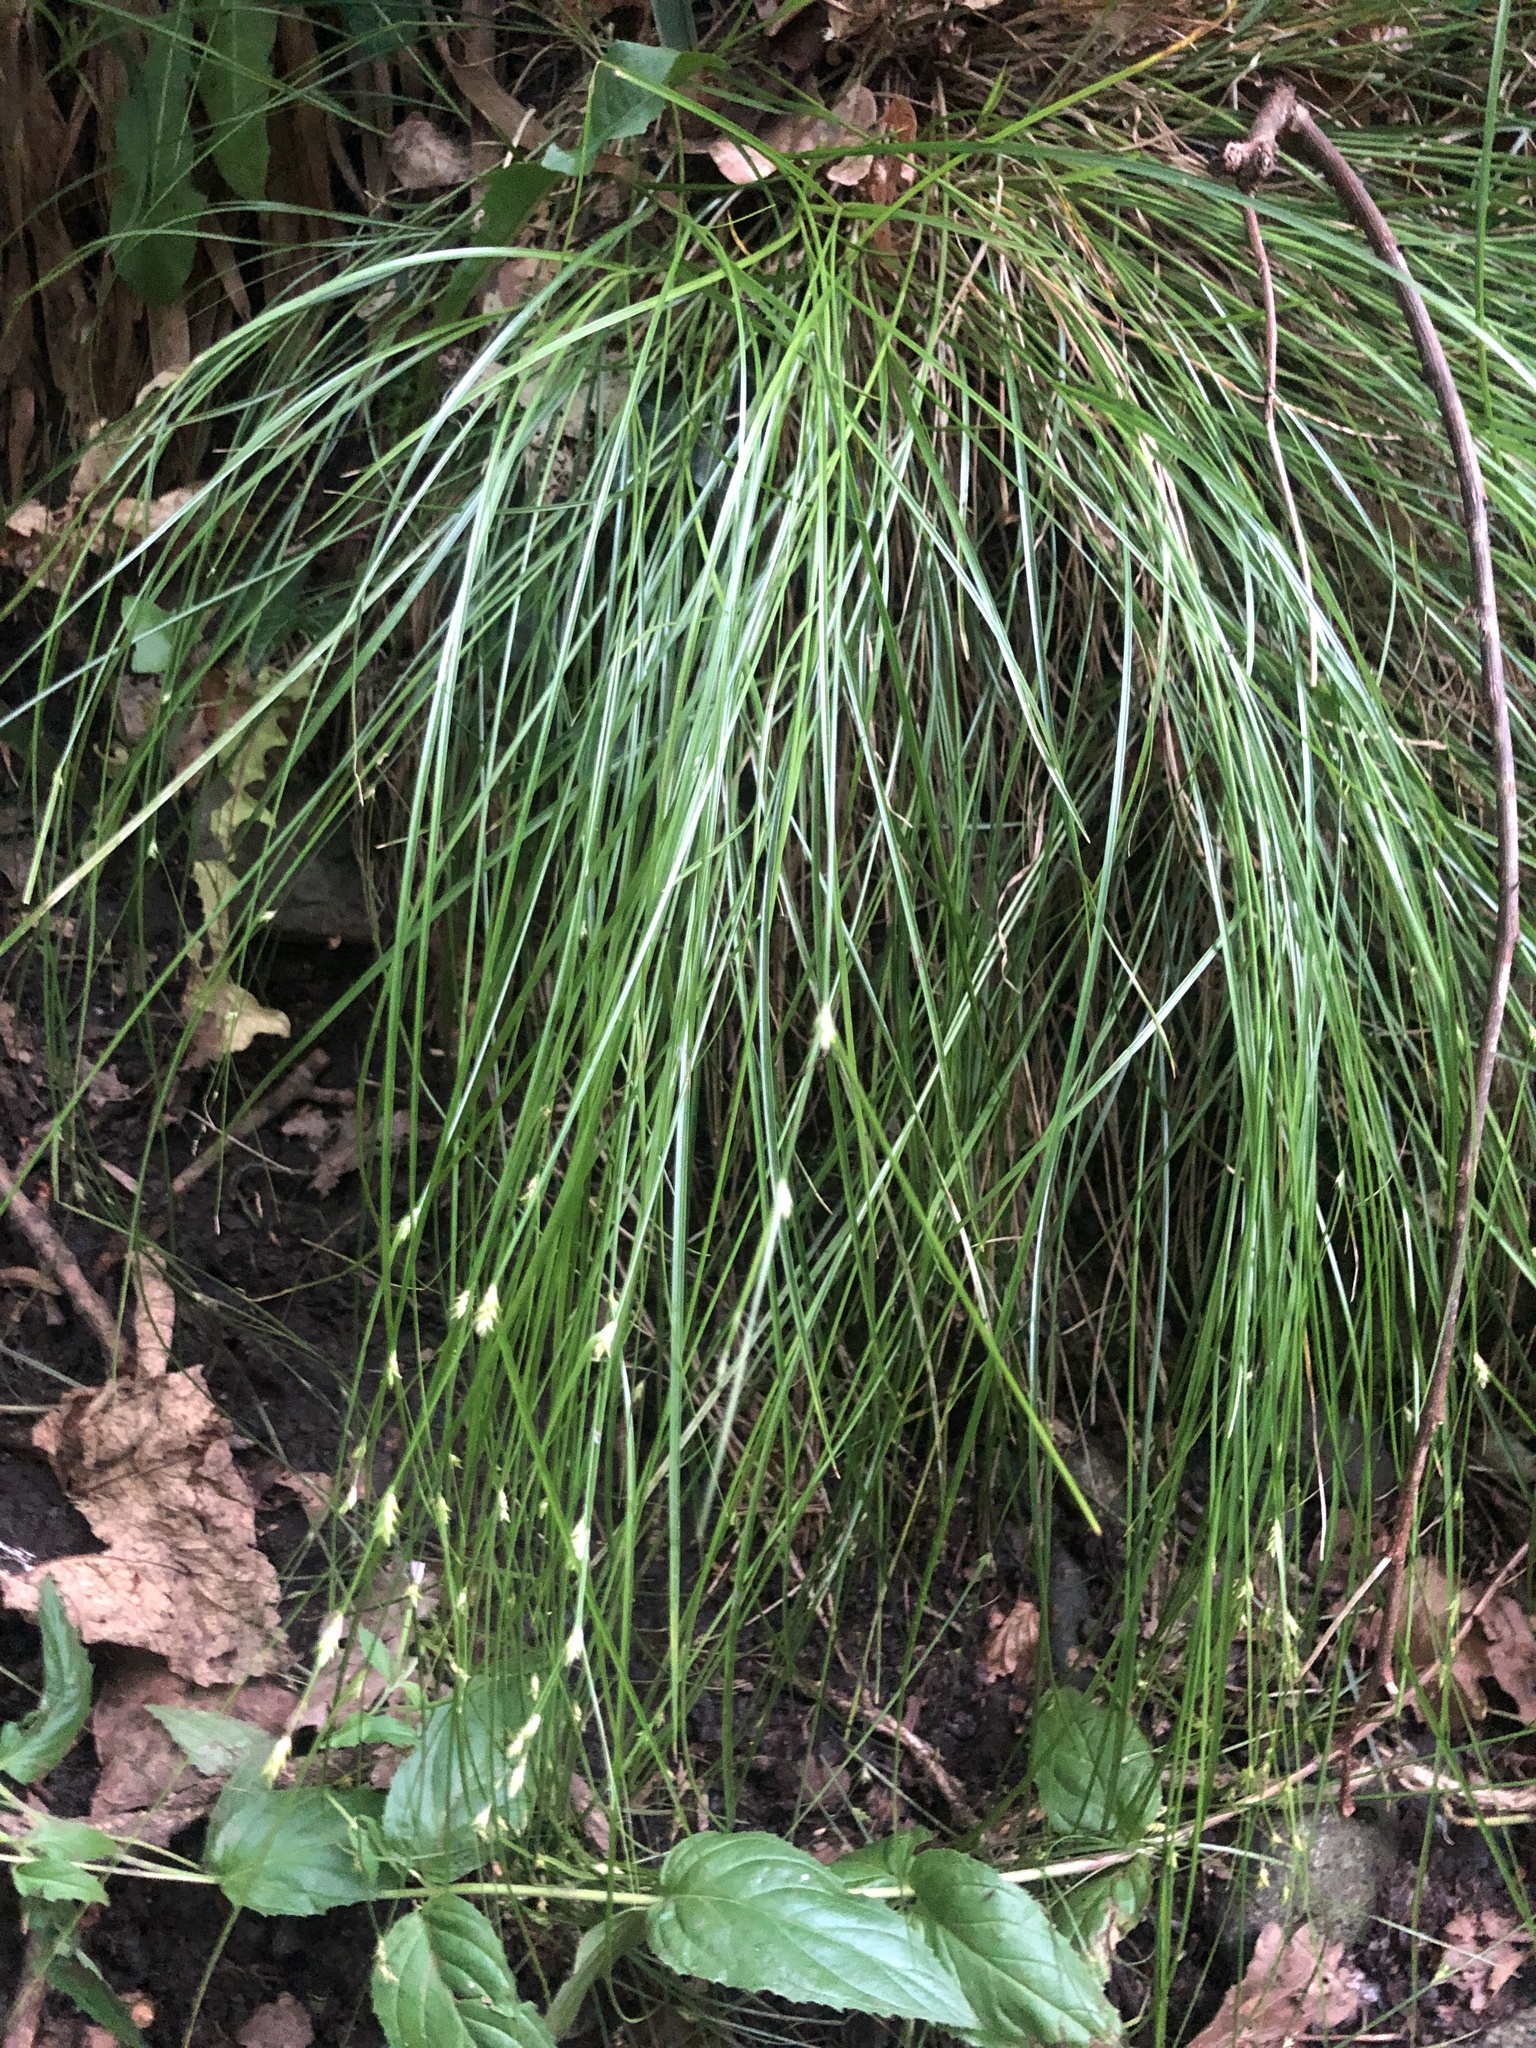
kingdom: Plantae
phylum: Tracheophyta
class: Liliopsida
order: Poales
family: Cyperaceae
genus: Carex
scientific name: Carex remota
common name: Remote sedge
